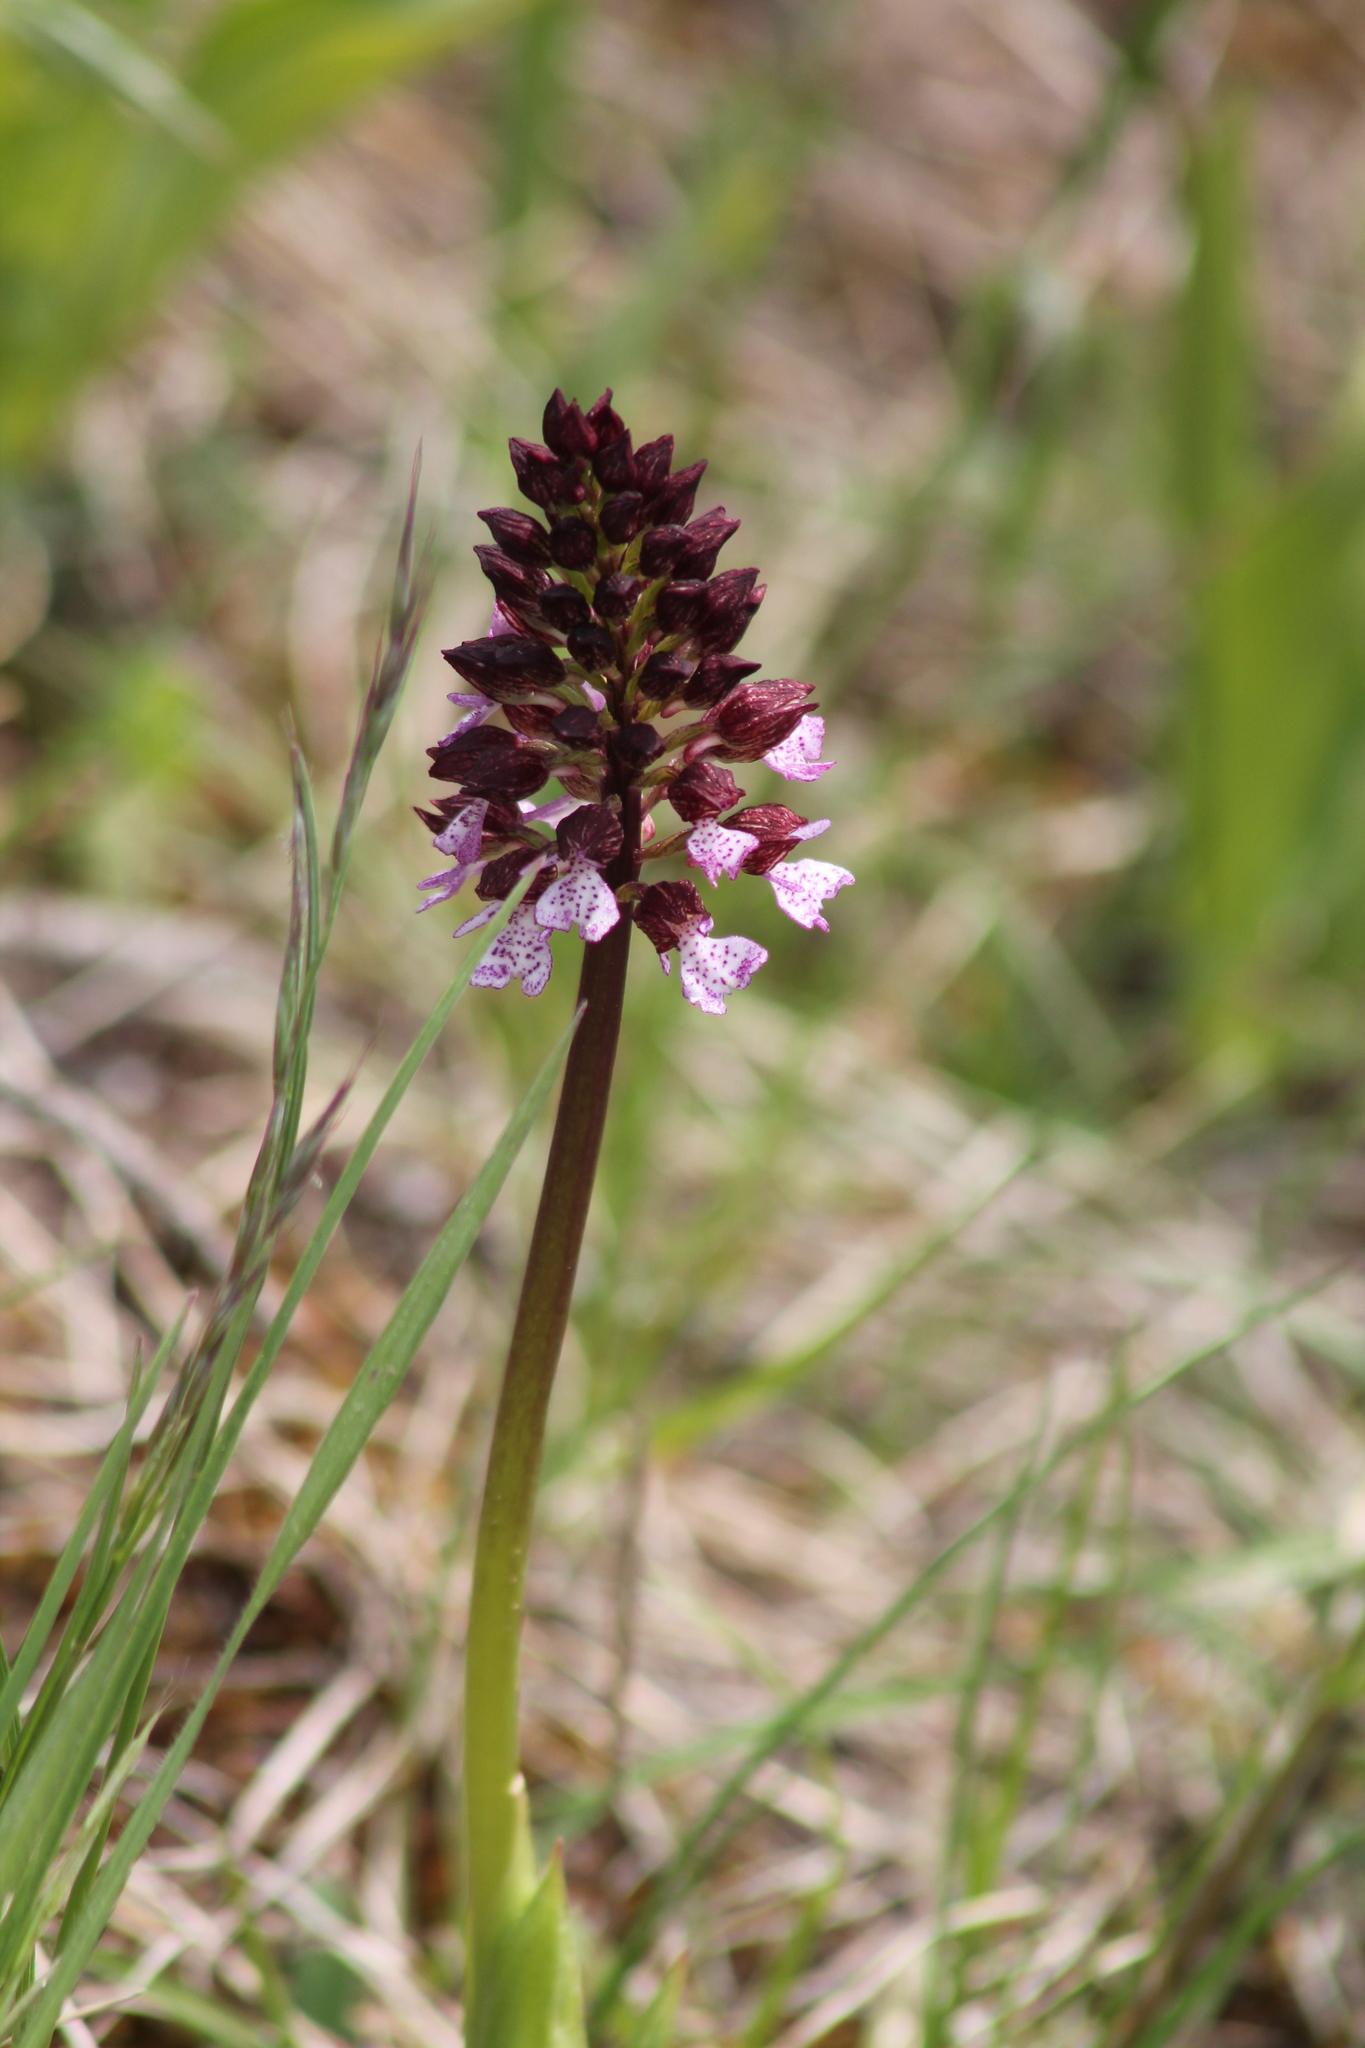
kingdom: Plantae
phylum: Tracheophyta
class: Liliopsida
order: Asparagales
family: Orchidaceae
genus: Orchis
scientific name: Orchis purpurea
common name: Lady orchid
